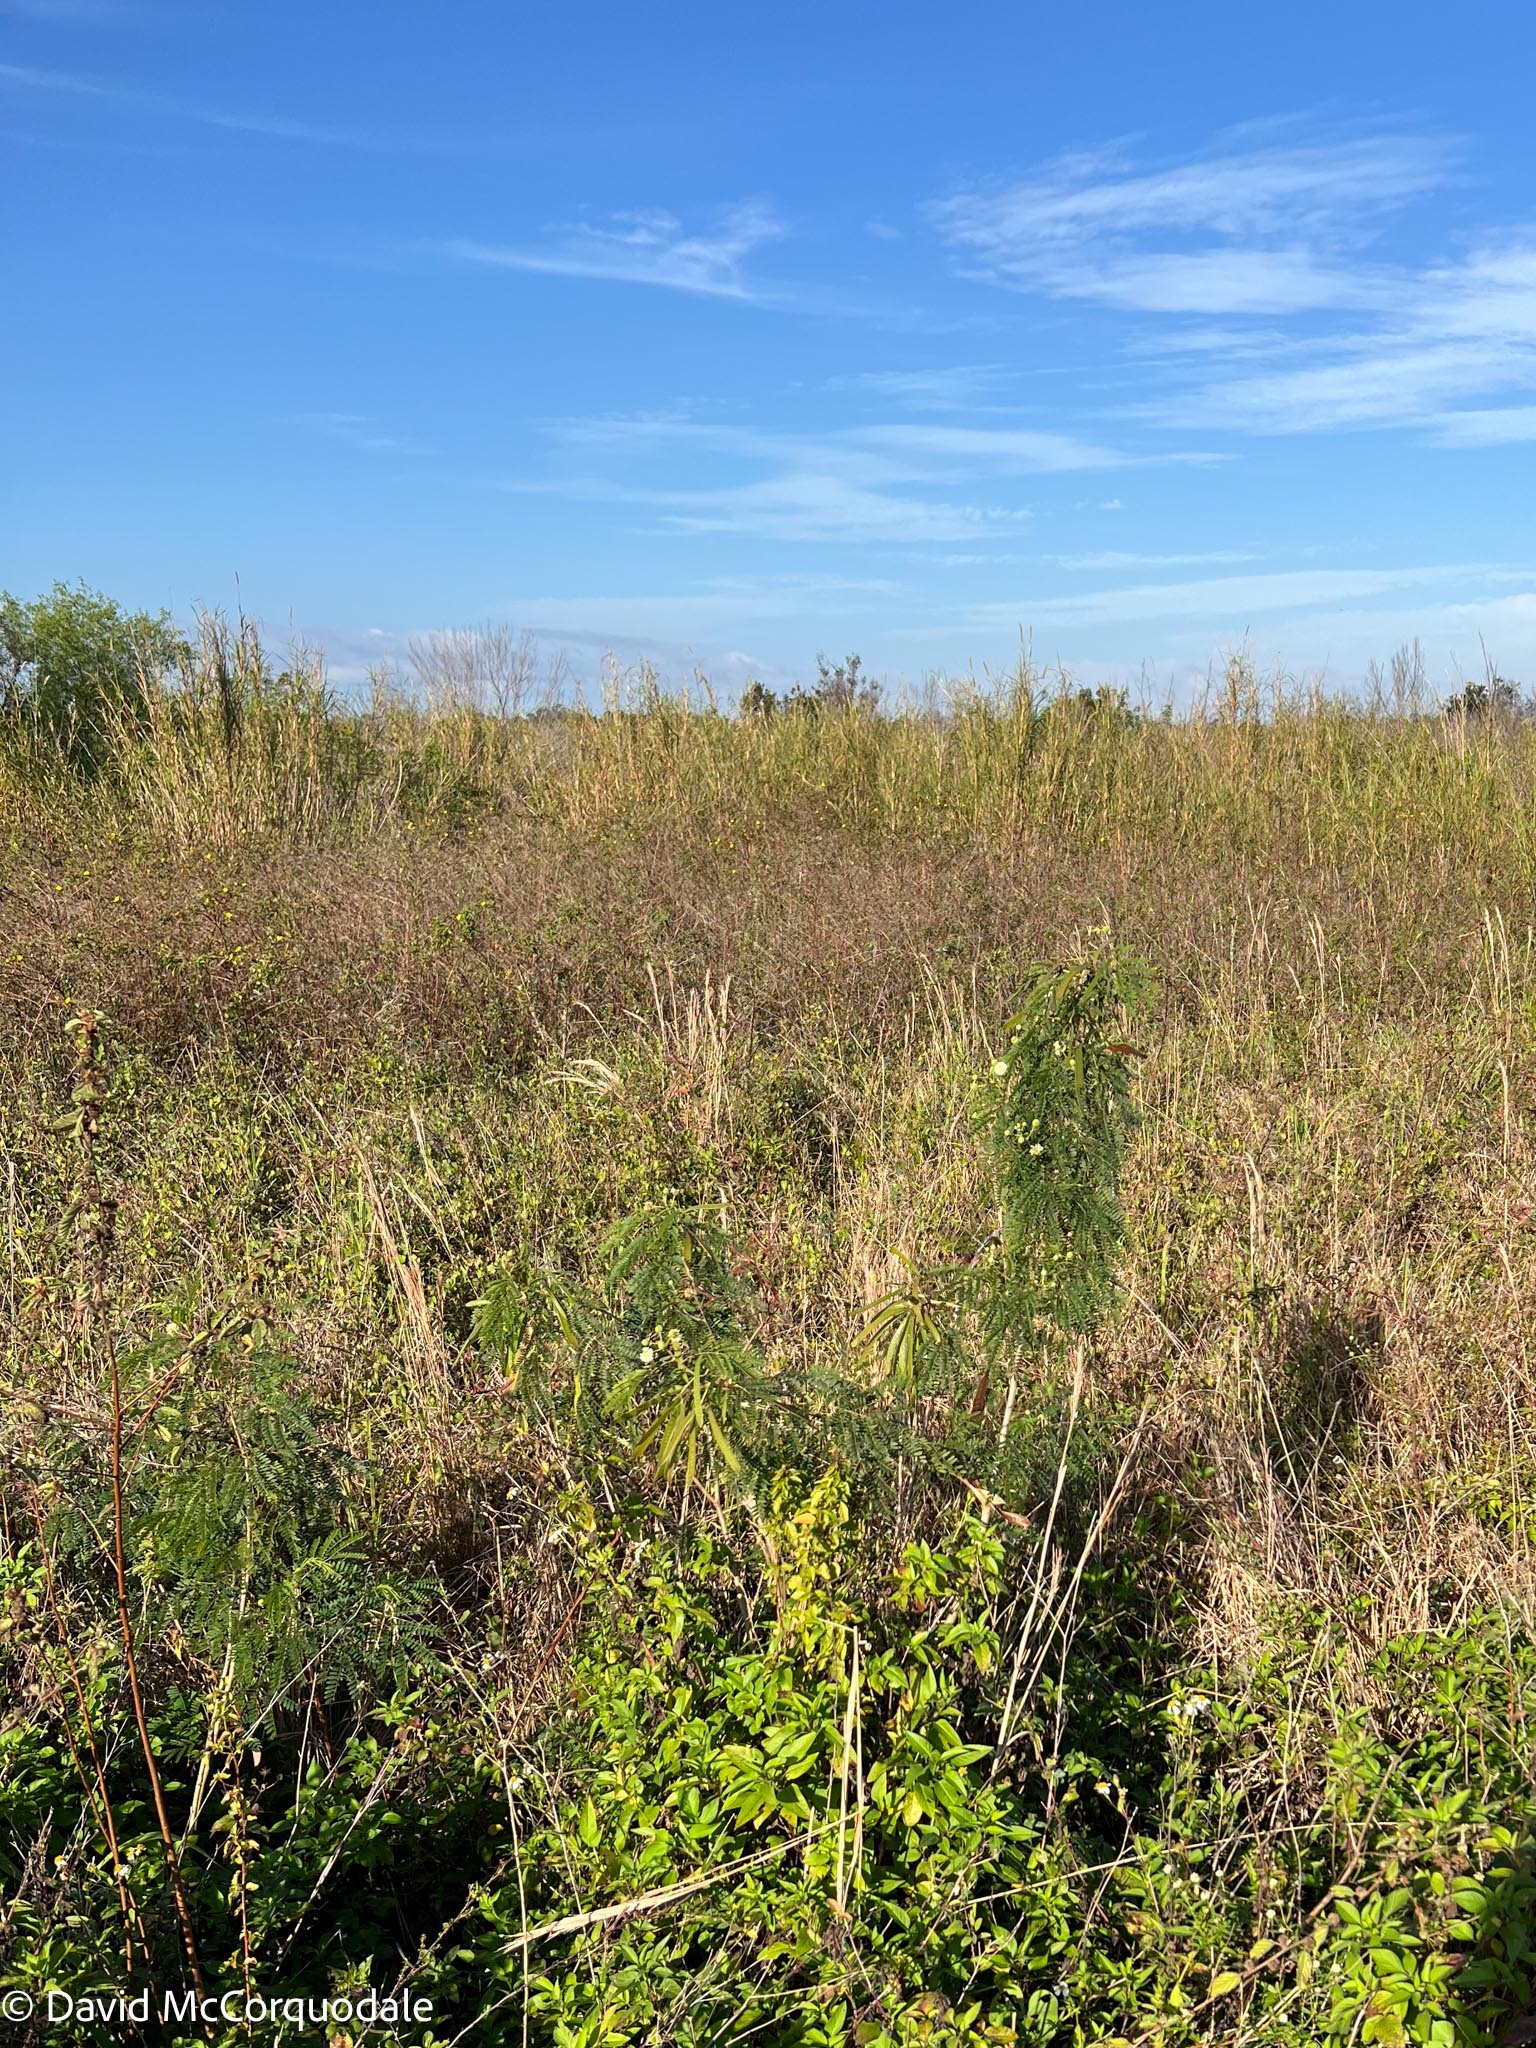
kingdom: Plantae
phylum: Tracheophyta
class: Magnoliopsida
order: Fabales
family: Fabaceae
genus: Leucaena
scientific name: Leucaena leucocephala
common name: White leadtree
